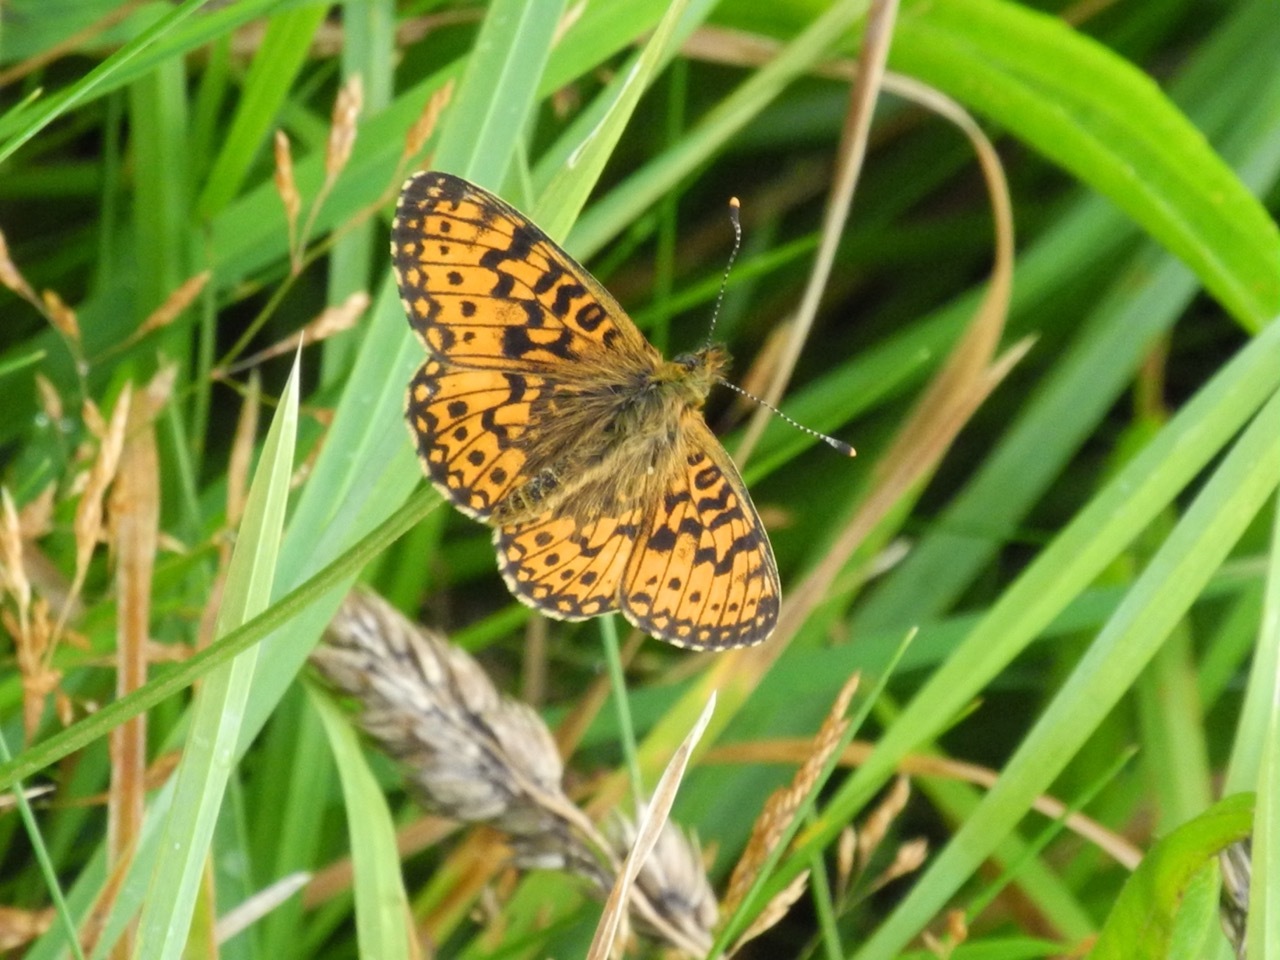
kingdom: Animalia
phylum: Arthropoda
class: Insecta
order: Lepidoptera
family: Nymphalidae
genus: Boloria
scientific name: Boloria selene
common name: Small pearl-bordered fritillary
